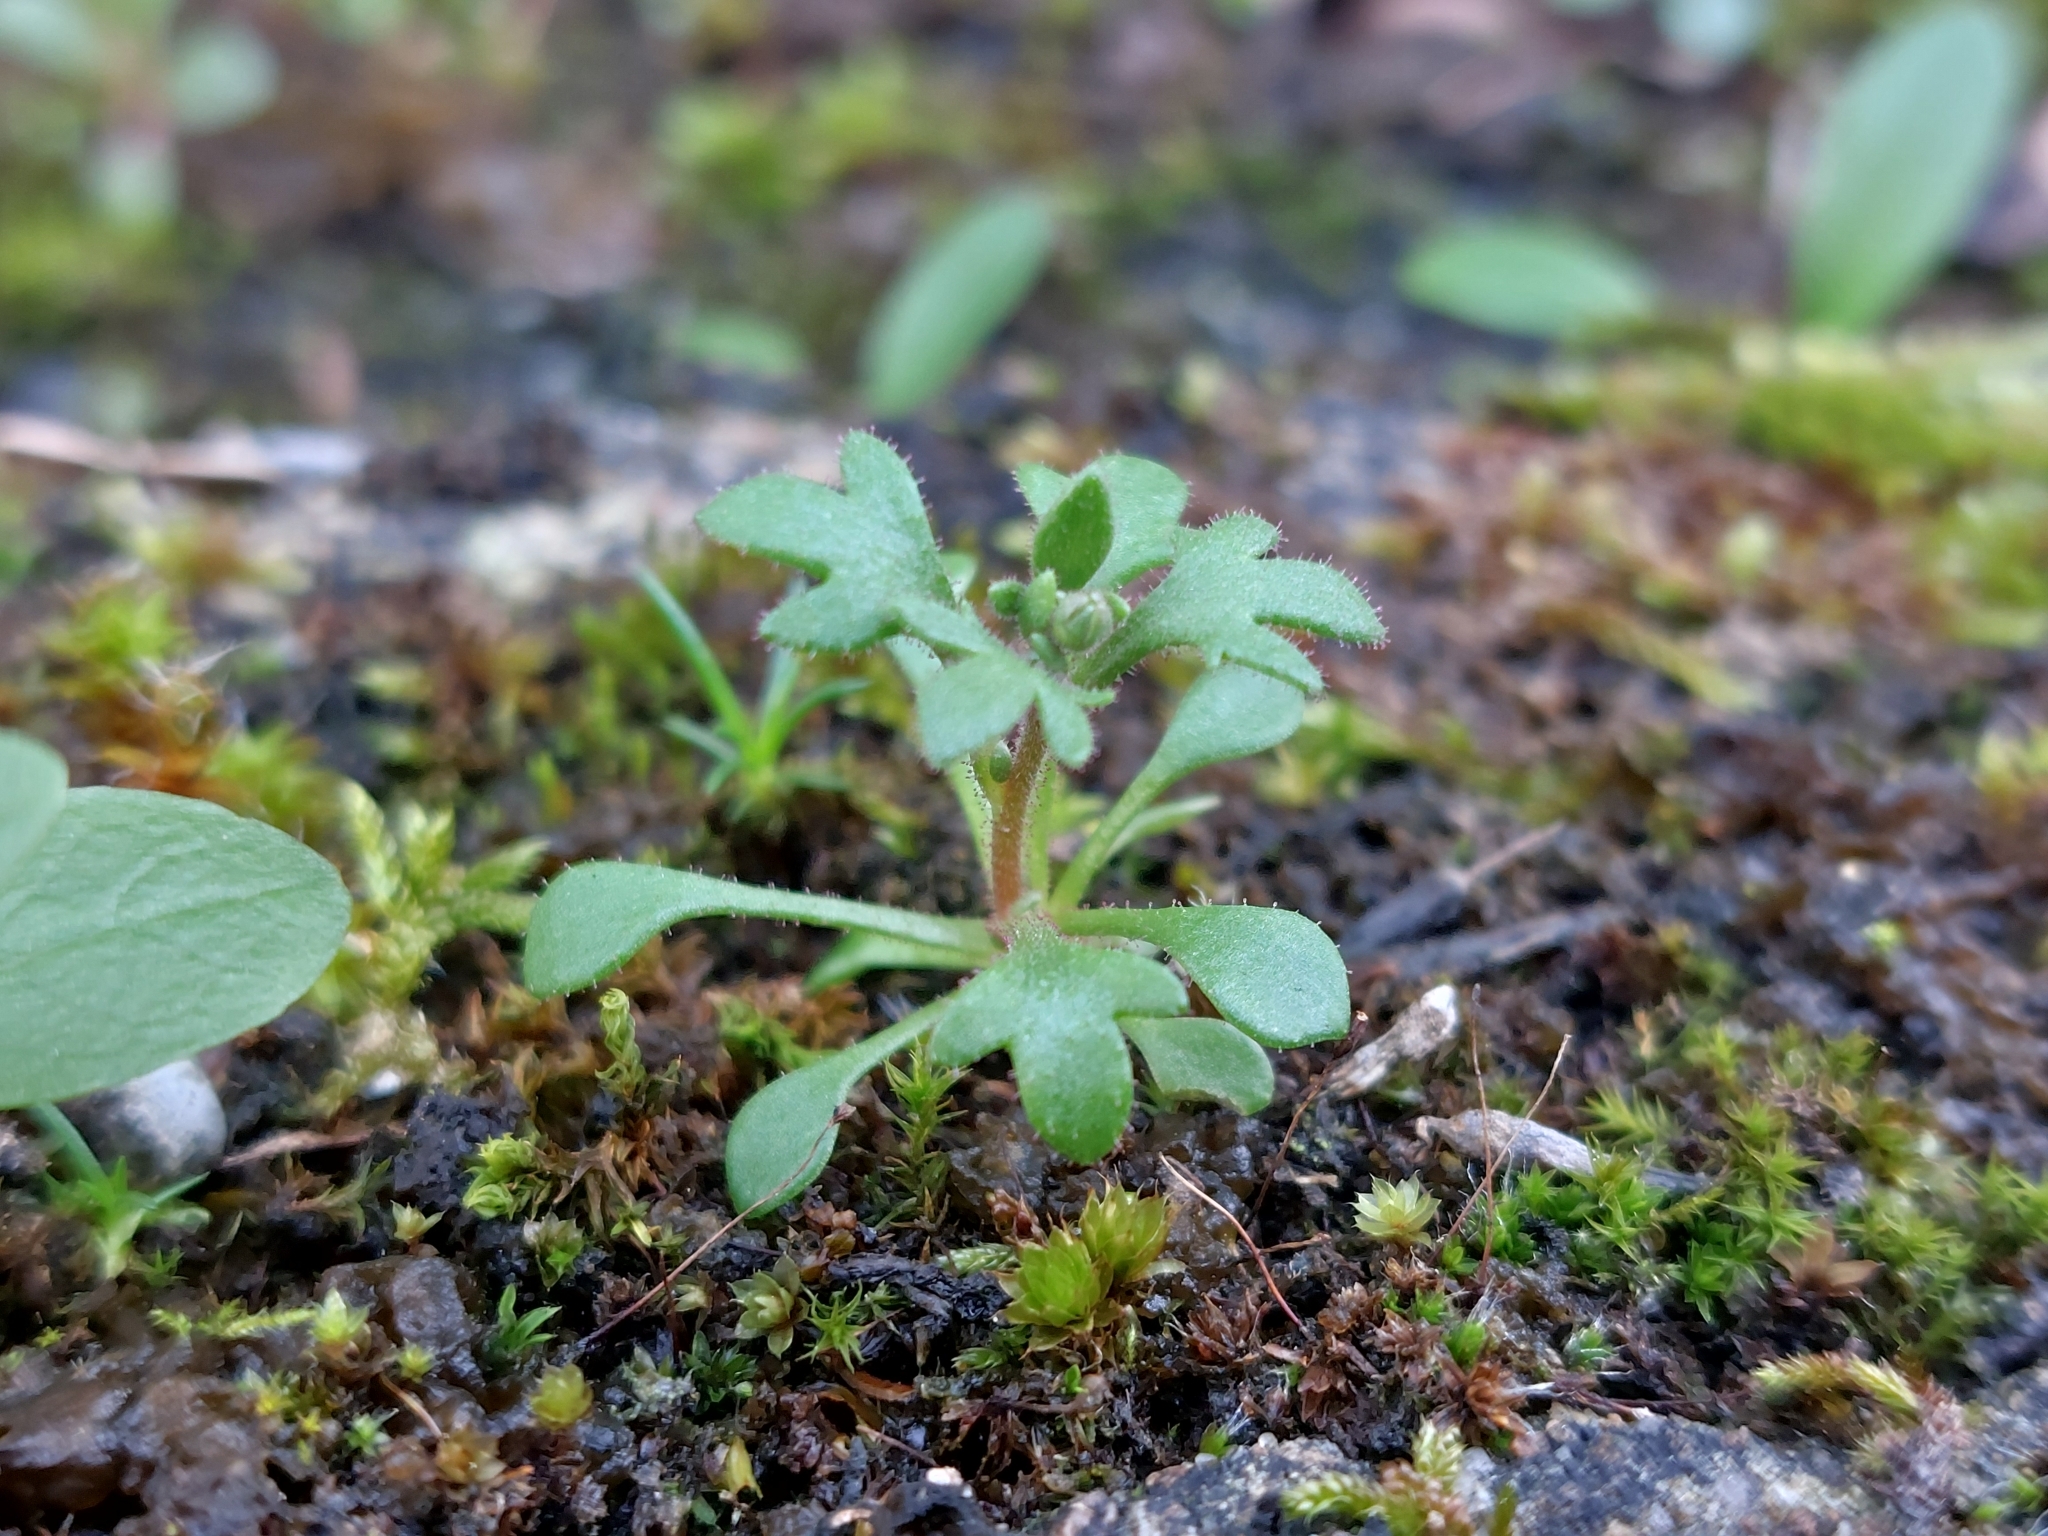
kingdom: Plantae
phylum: Tracheophyta
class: Magnoliopsida
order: Saxifragales
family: Saxifragaceae
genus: Saxifraga
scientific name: Saxifraga tridactylites
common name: Rue-leaved saxifrage
